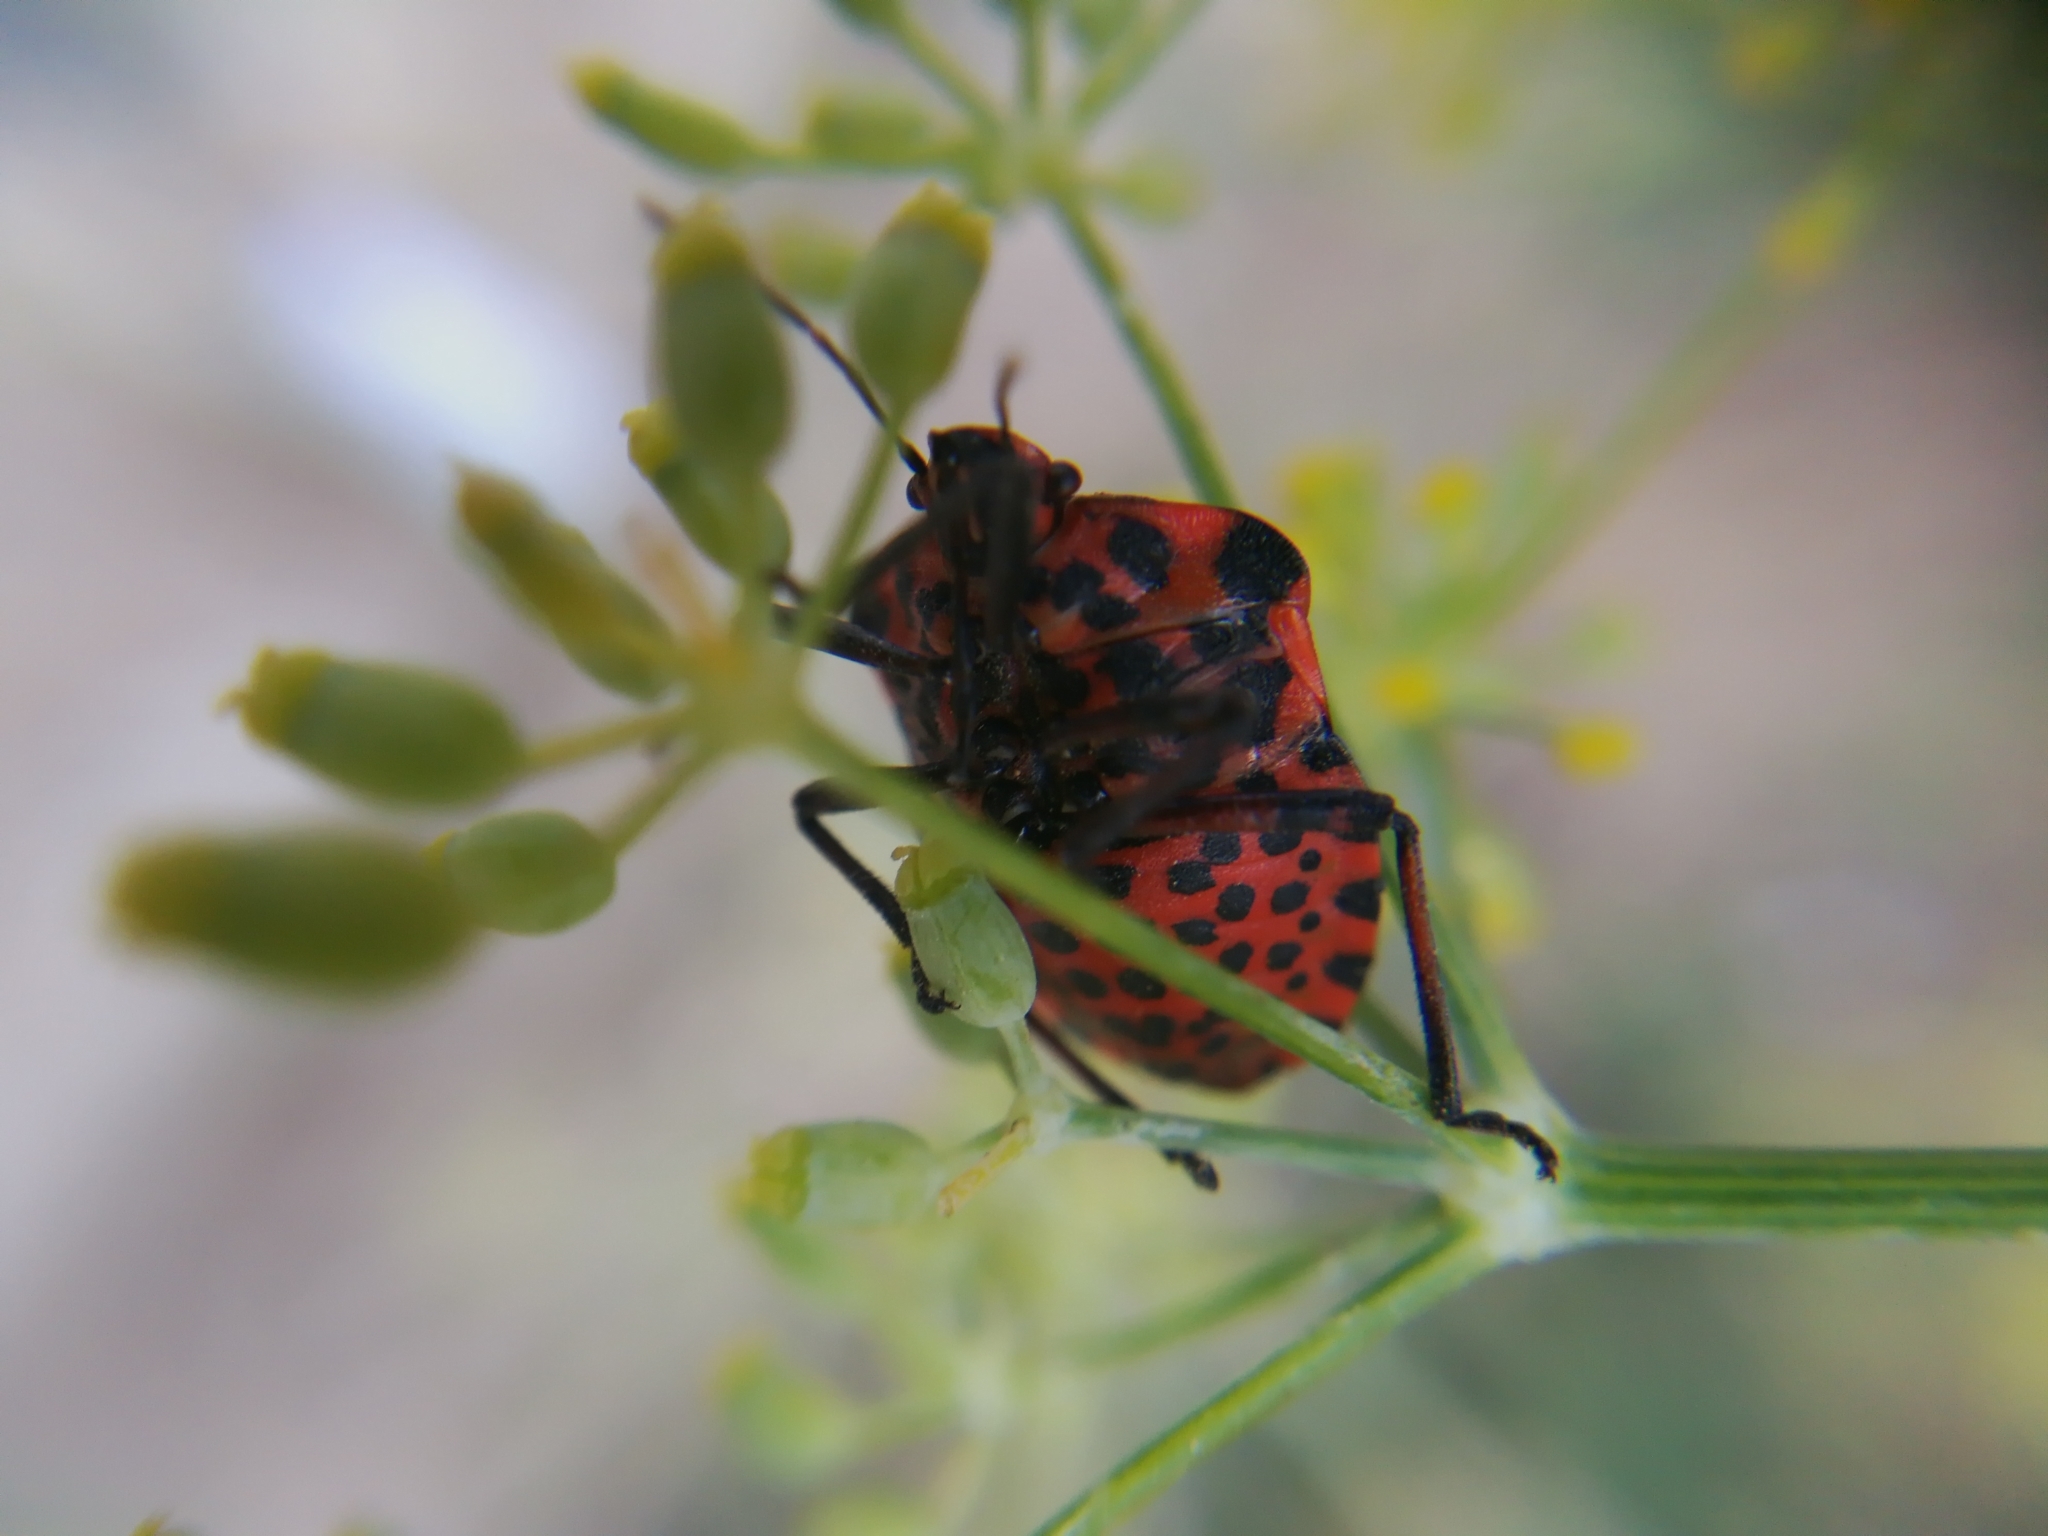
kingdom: Animalia
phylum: Arthropoda
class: Insecta
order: Hemiptera
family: Pentatomidae
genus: Graphosoma
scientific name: Graphosoma italicum
